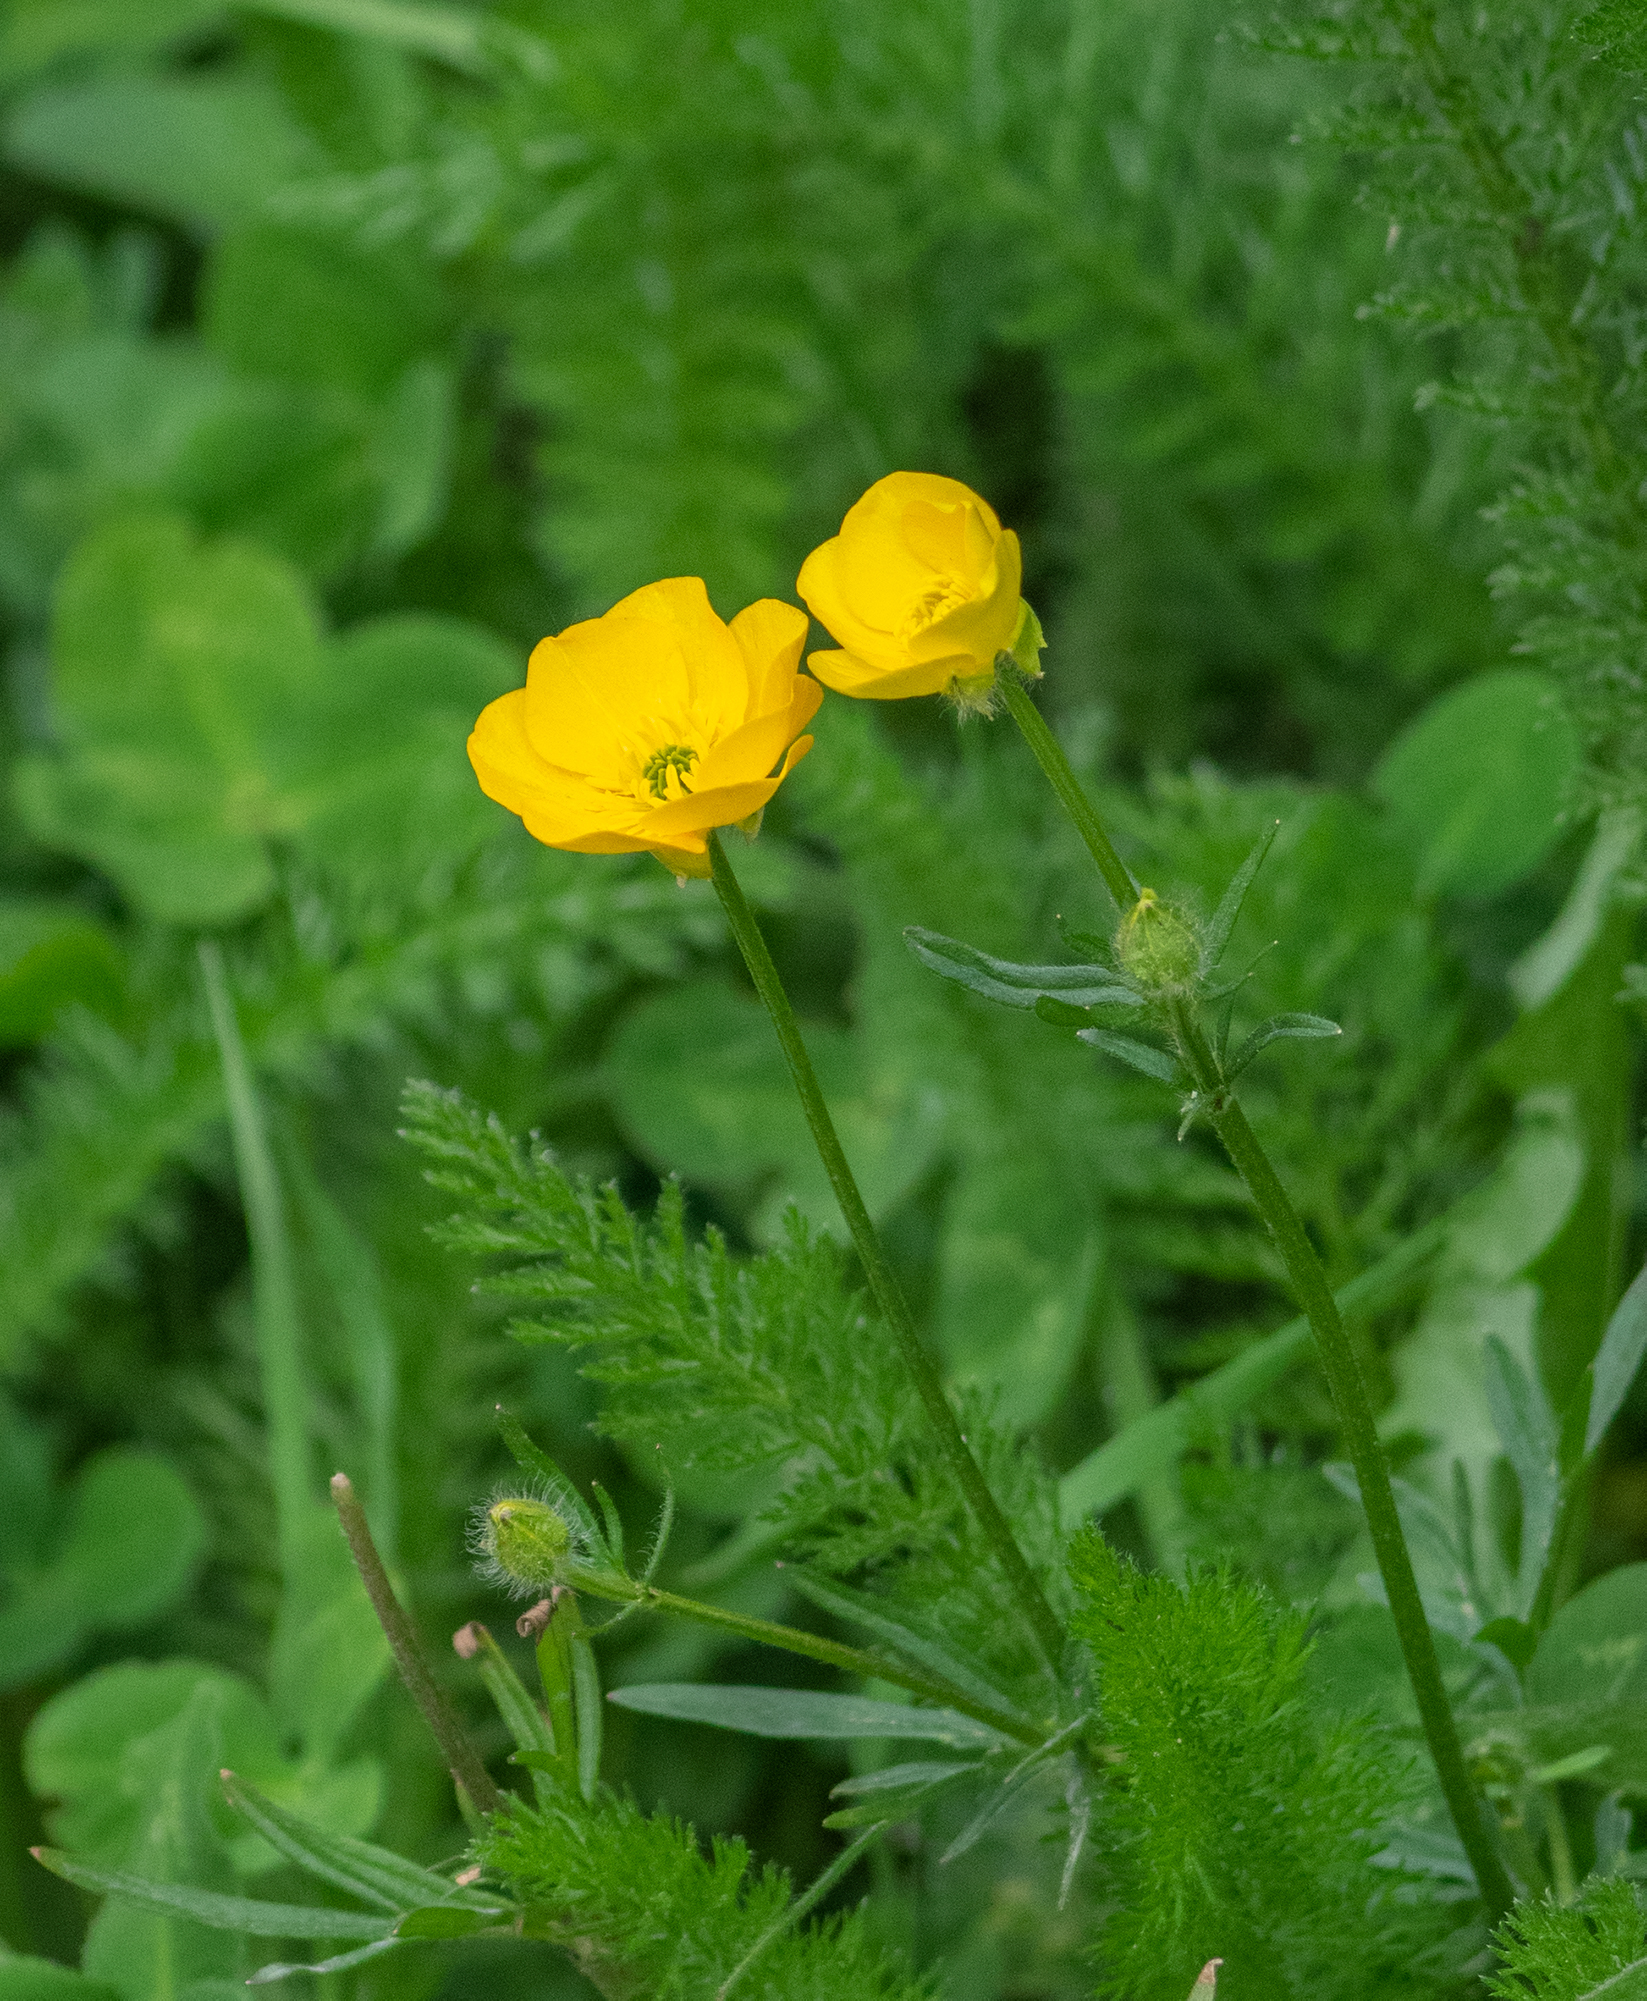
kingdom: Plantae
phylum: Tracheophyta
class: Magnoliopsida
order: Ranunculales
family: Ranunculaceae
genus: Ranunculus
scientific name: Ranunculus bulbosus
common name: Bulbous buttercup
